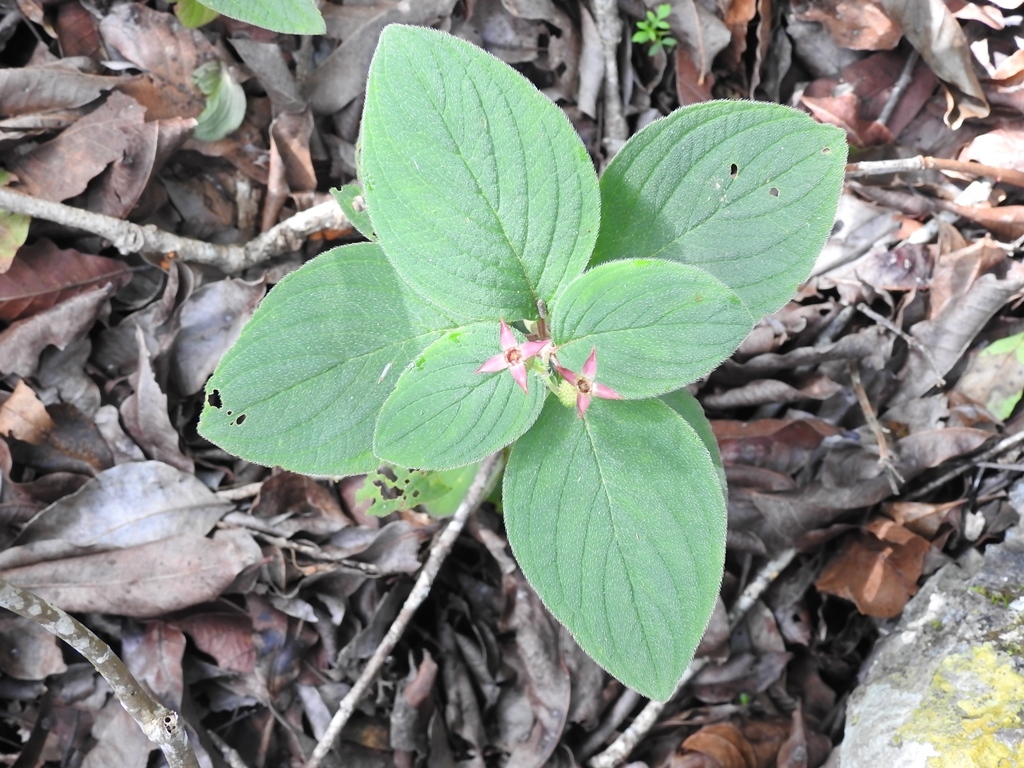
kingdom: Plantae
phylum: Tracheophyta
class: Magnoliopsida
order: Myrtales
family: Melastomataceae
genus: Heterocentron
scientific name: Heterocentron muricatum
